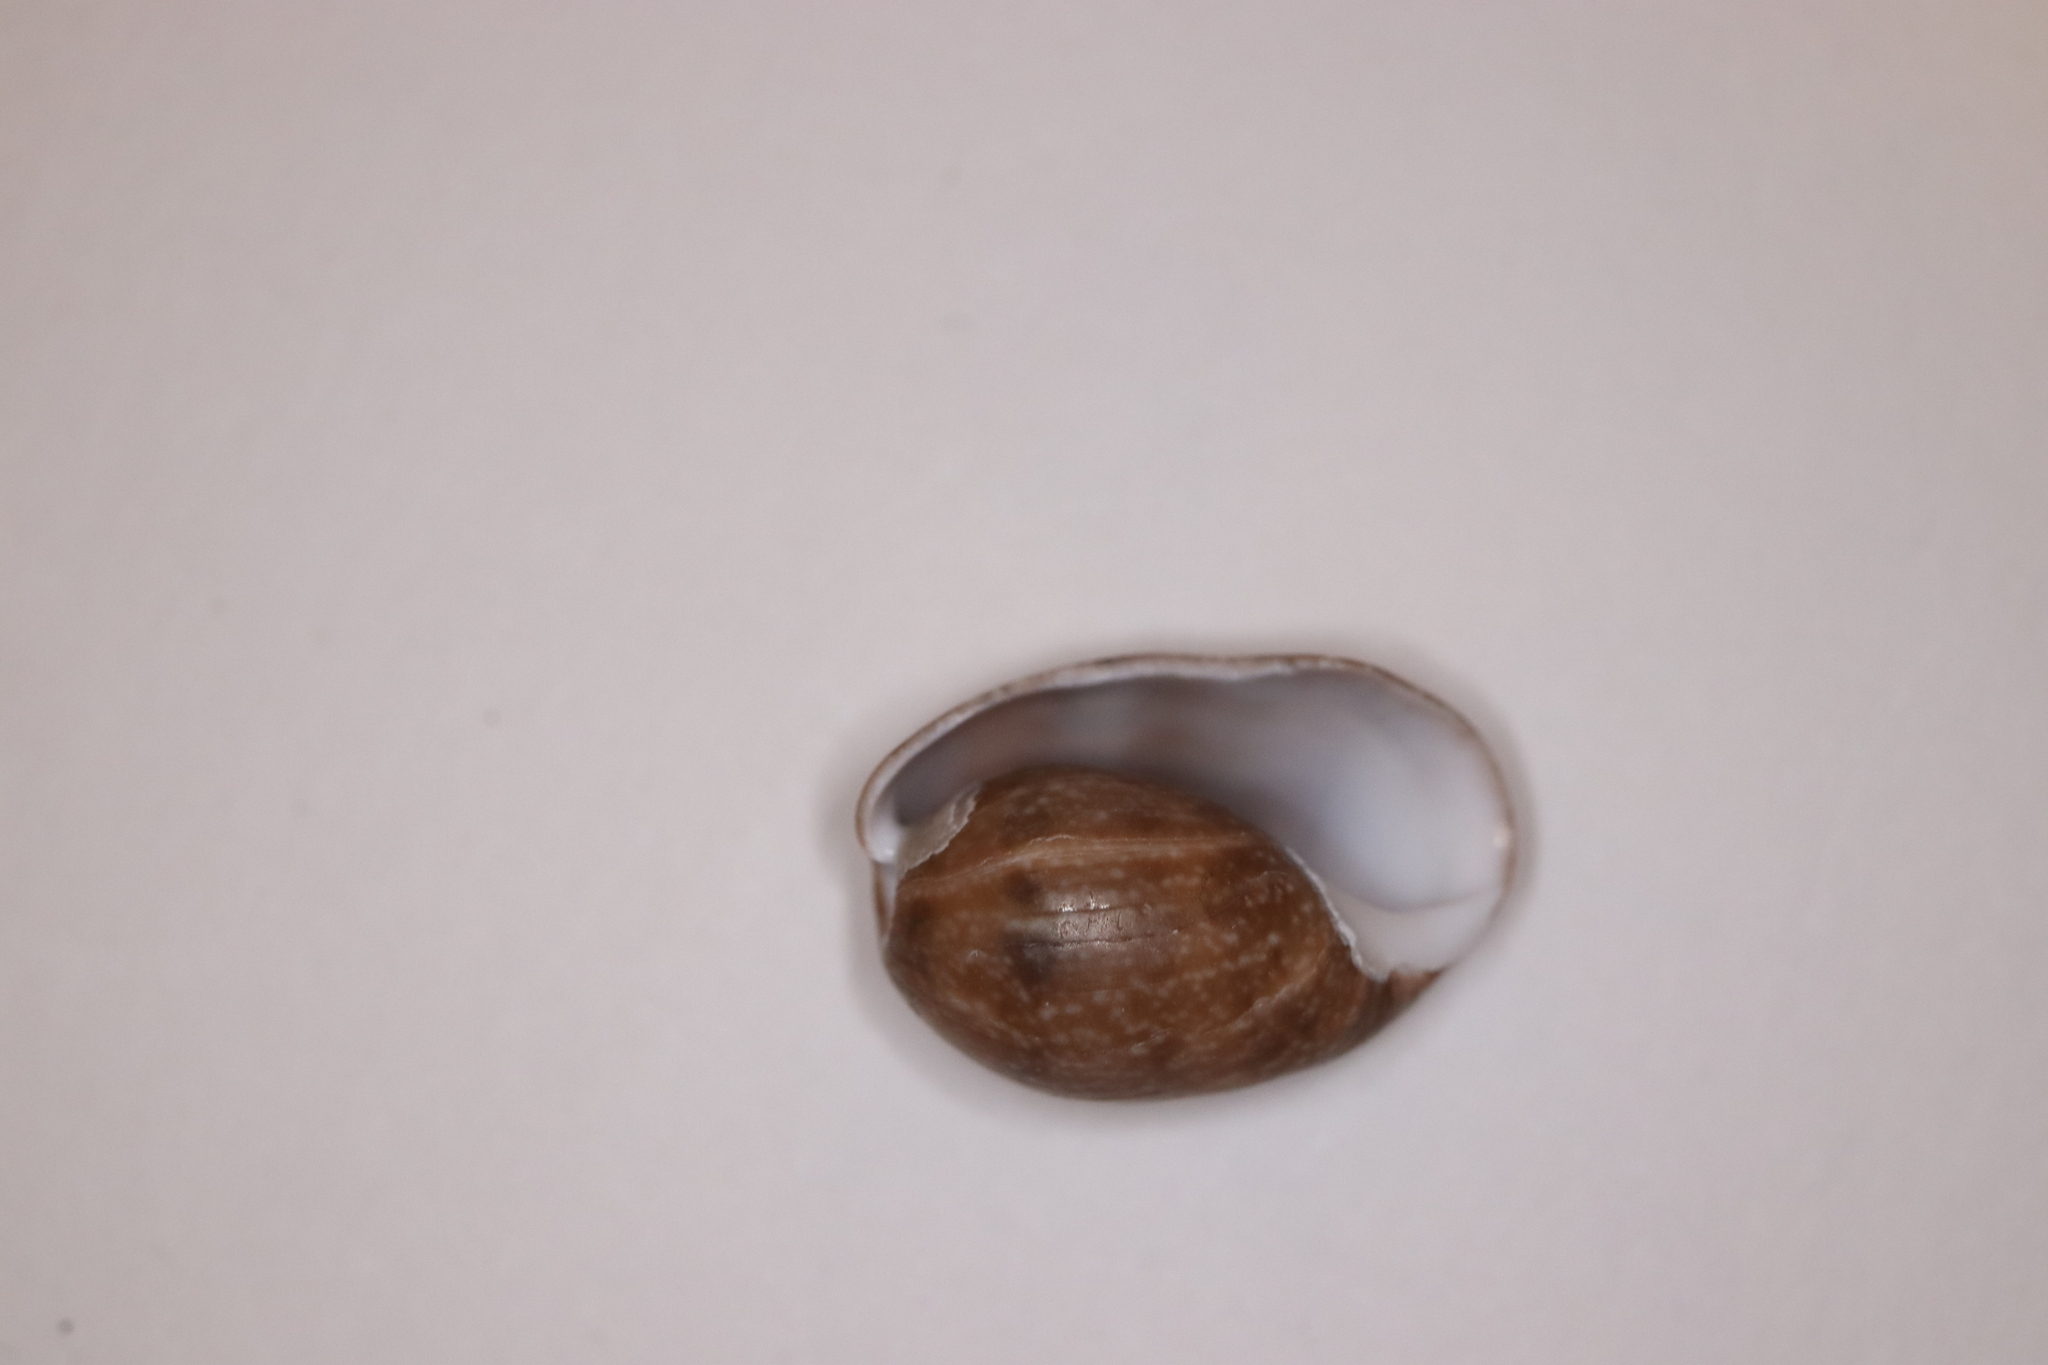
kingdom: Animalia
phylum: Mollusca
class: Gastropoda
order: Cephalaspidea
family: Bullidae
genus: Bulla
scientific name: Bulla vernicosa
